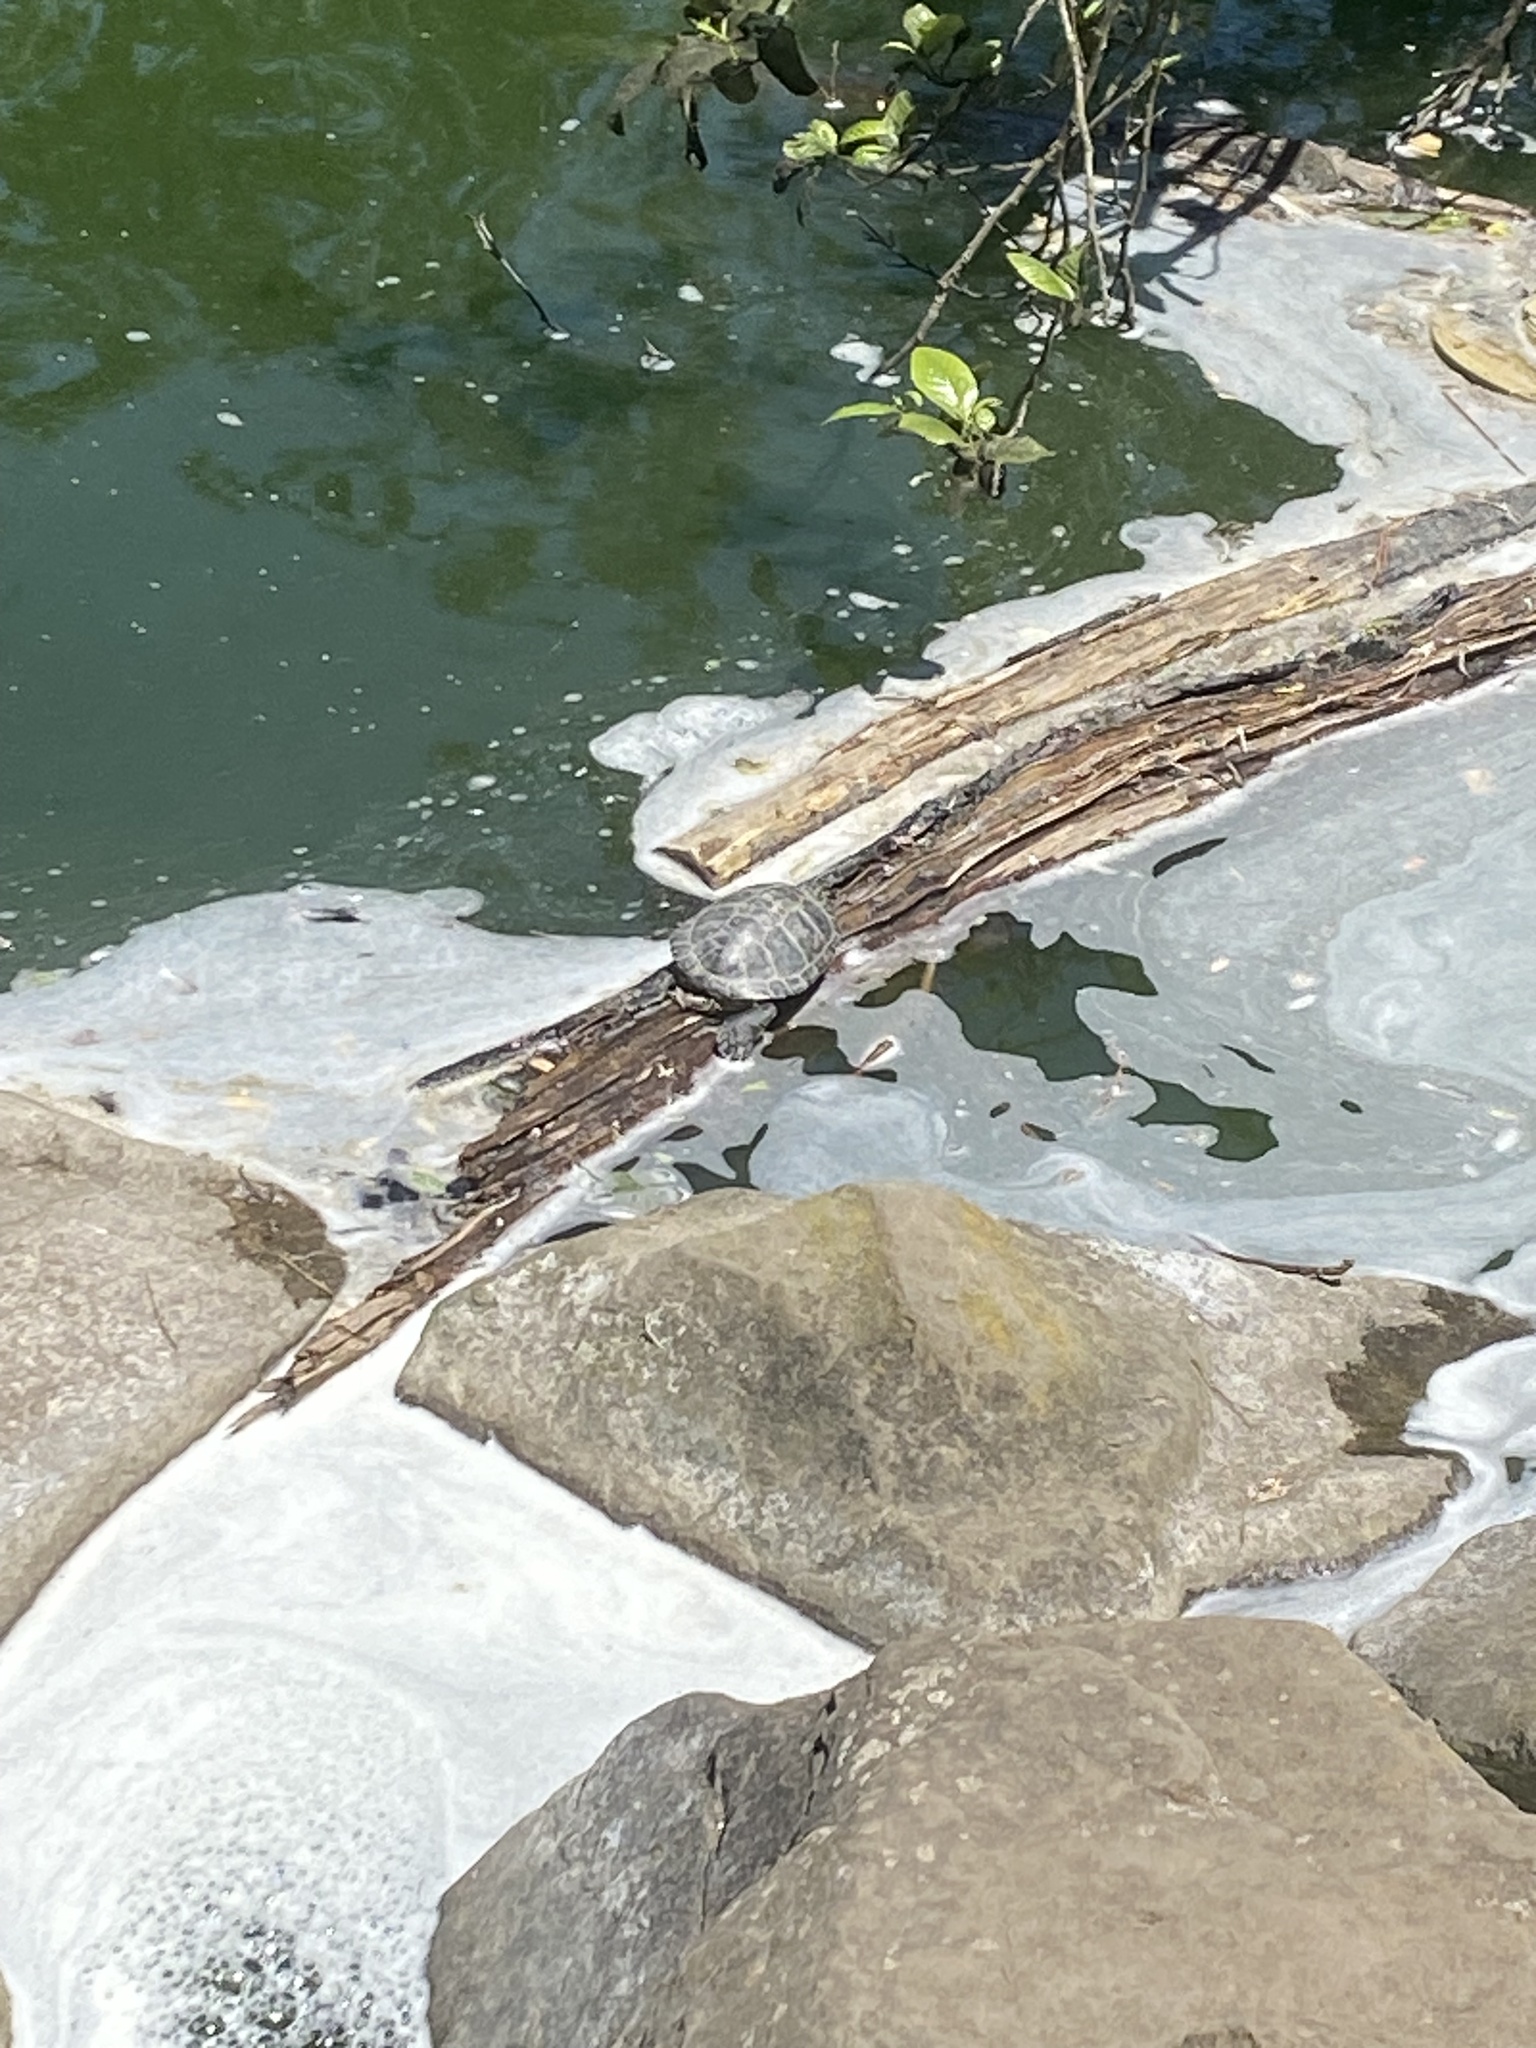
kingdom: Animalia
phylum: Chordata
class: Testudines
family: Emydidae
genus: Trachemys
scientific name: Trachemys scripta
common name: Slider
